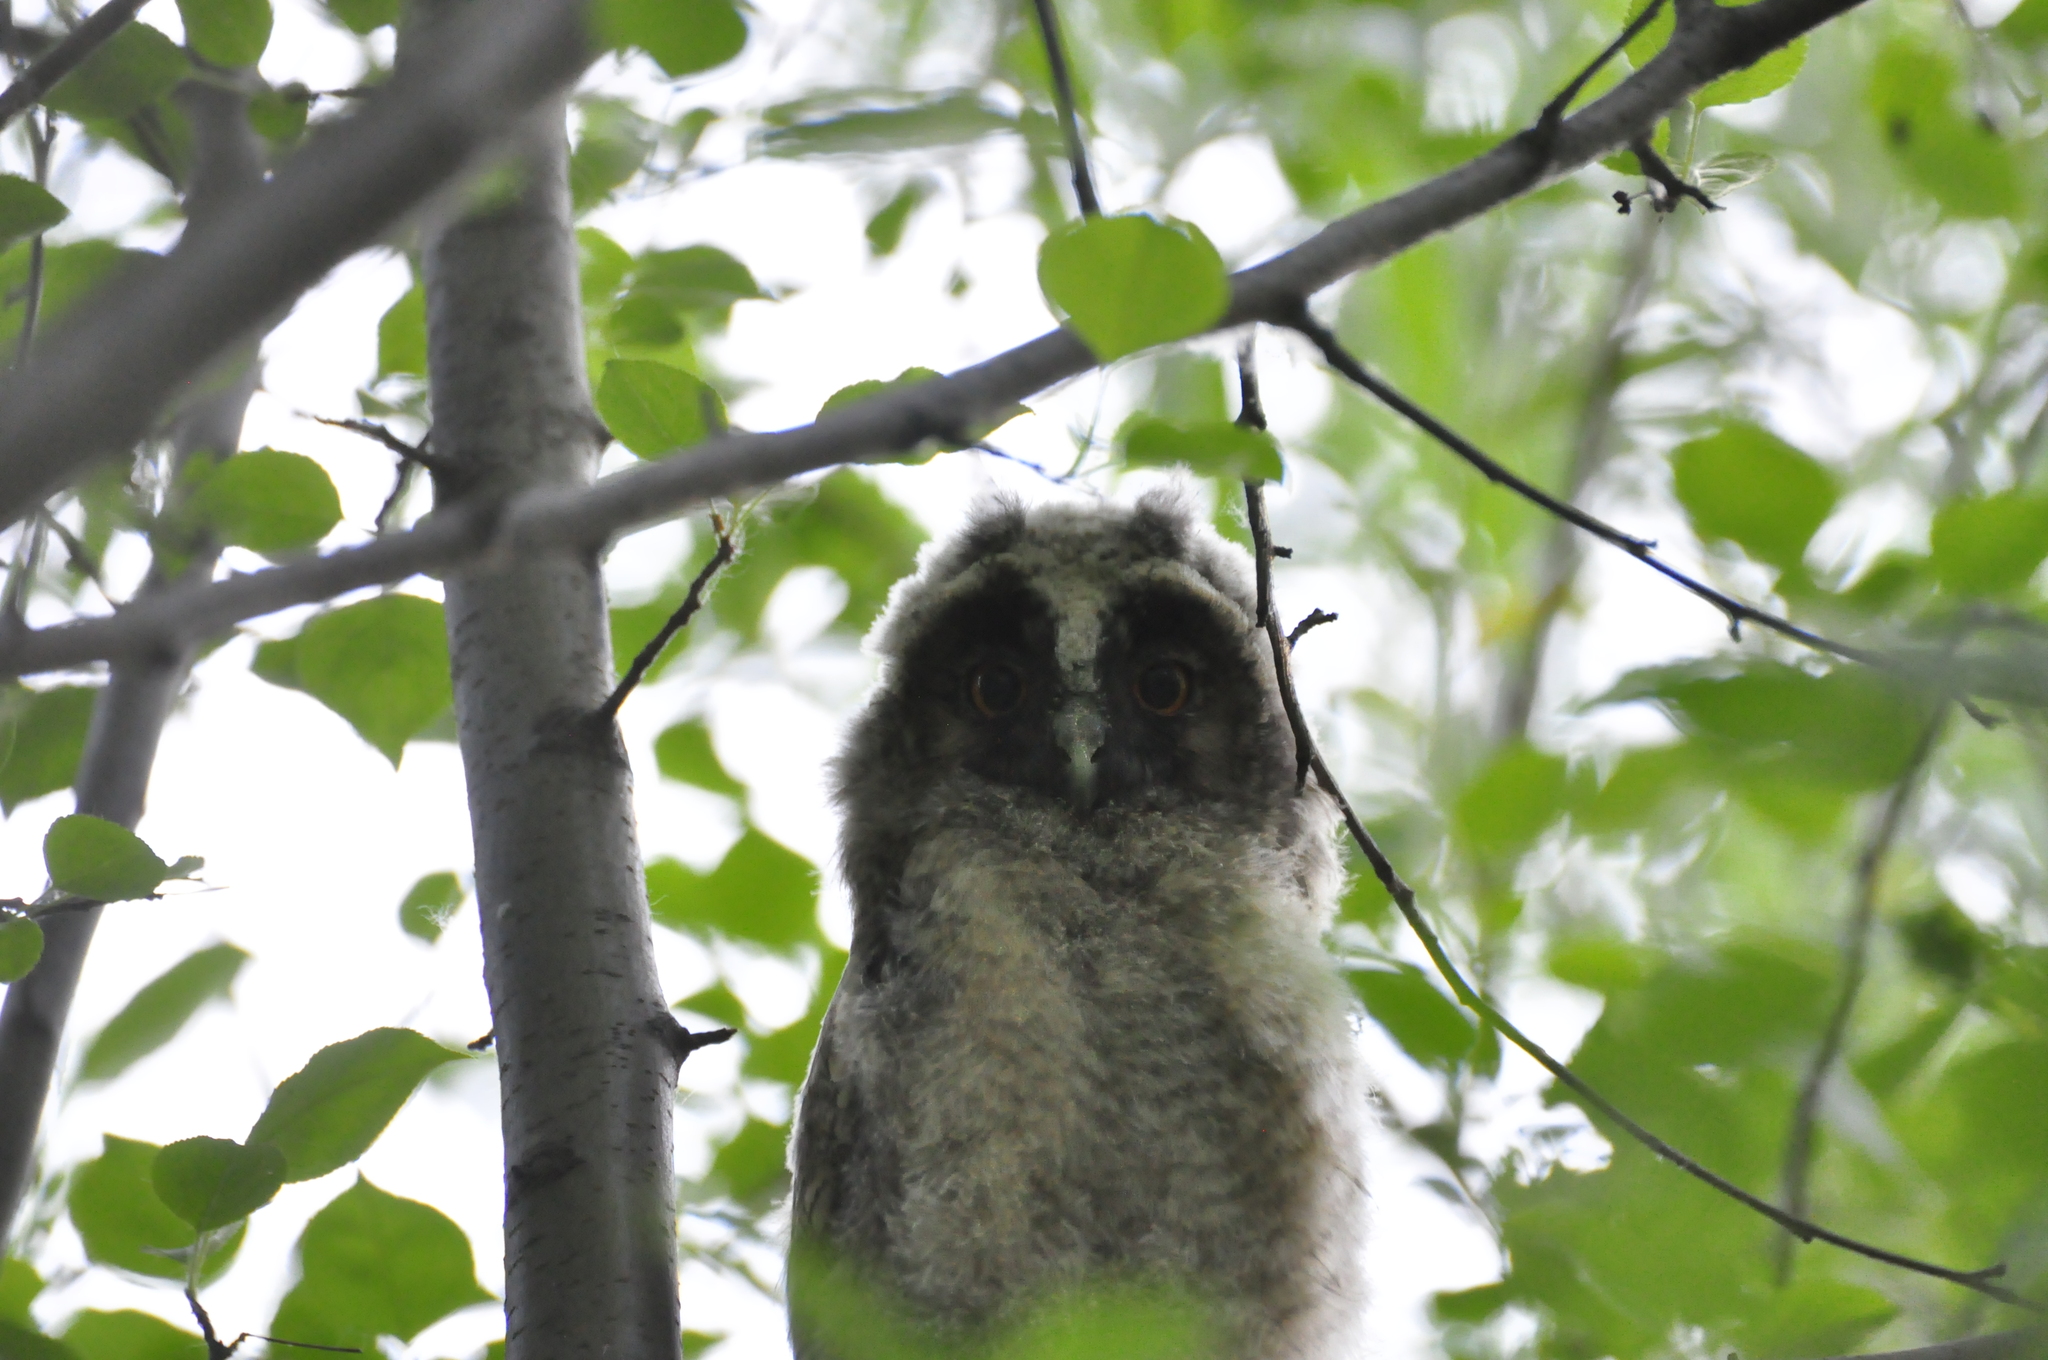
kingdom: Animalia
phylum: Chordata
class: Aves
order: Strigiformes
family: Strigidae
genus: Asio
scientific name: Asio otus
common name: Long-eared owl
